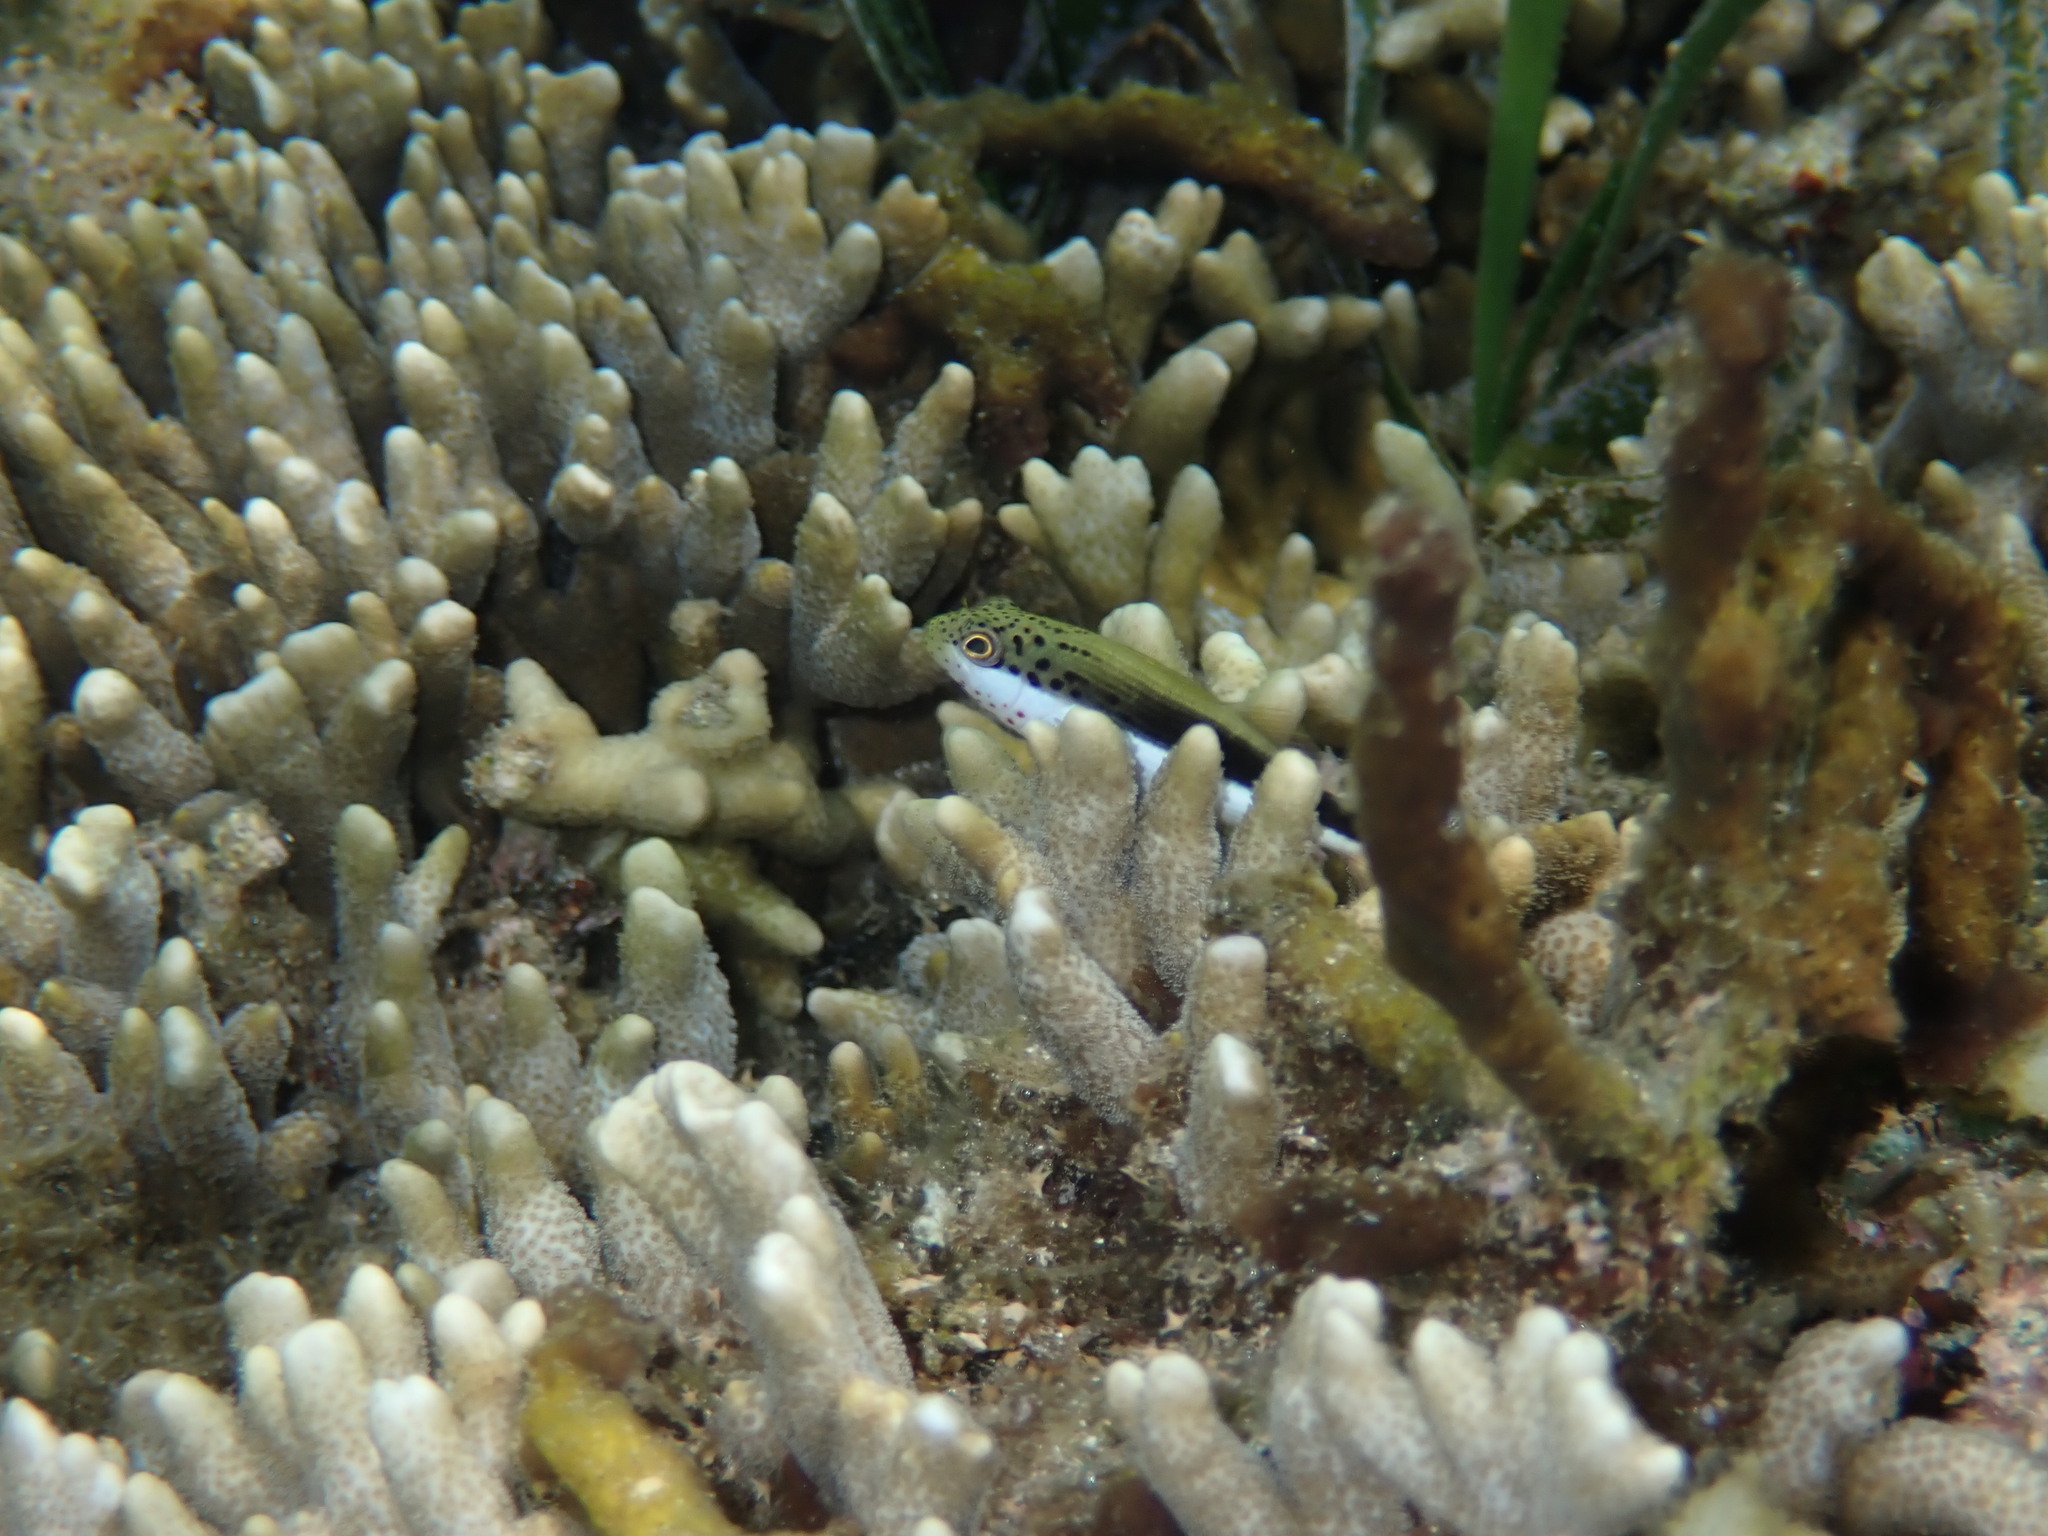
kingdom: Animalia
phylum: Chordata
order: Perciformes
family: Cirrhitidae
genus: Paracirrhites
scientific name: Paracirrhites forsteri
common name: Freckled hawkfish
